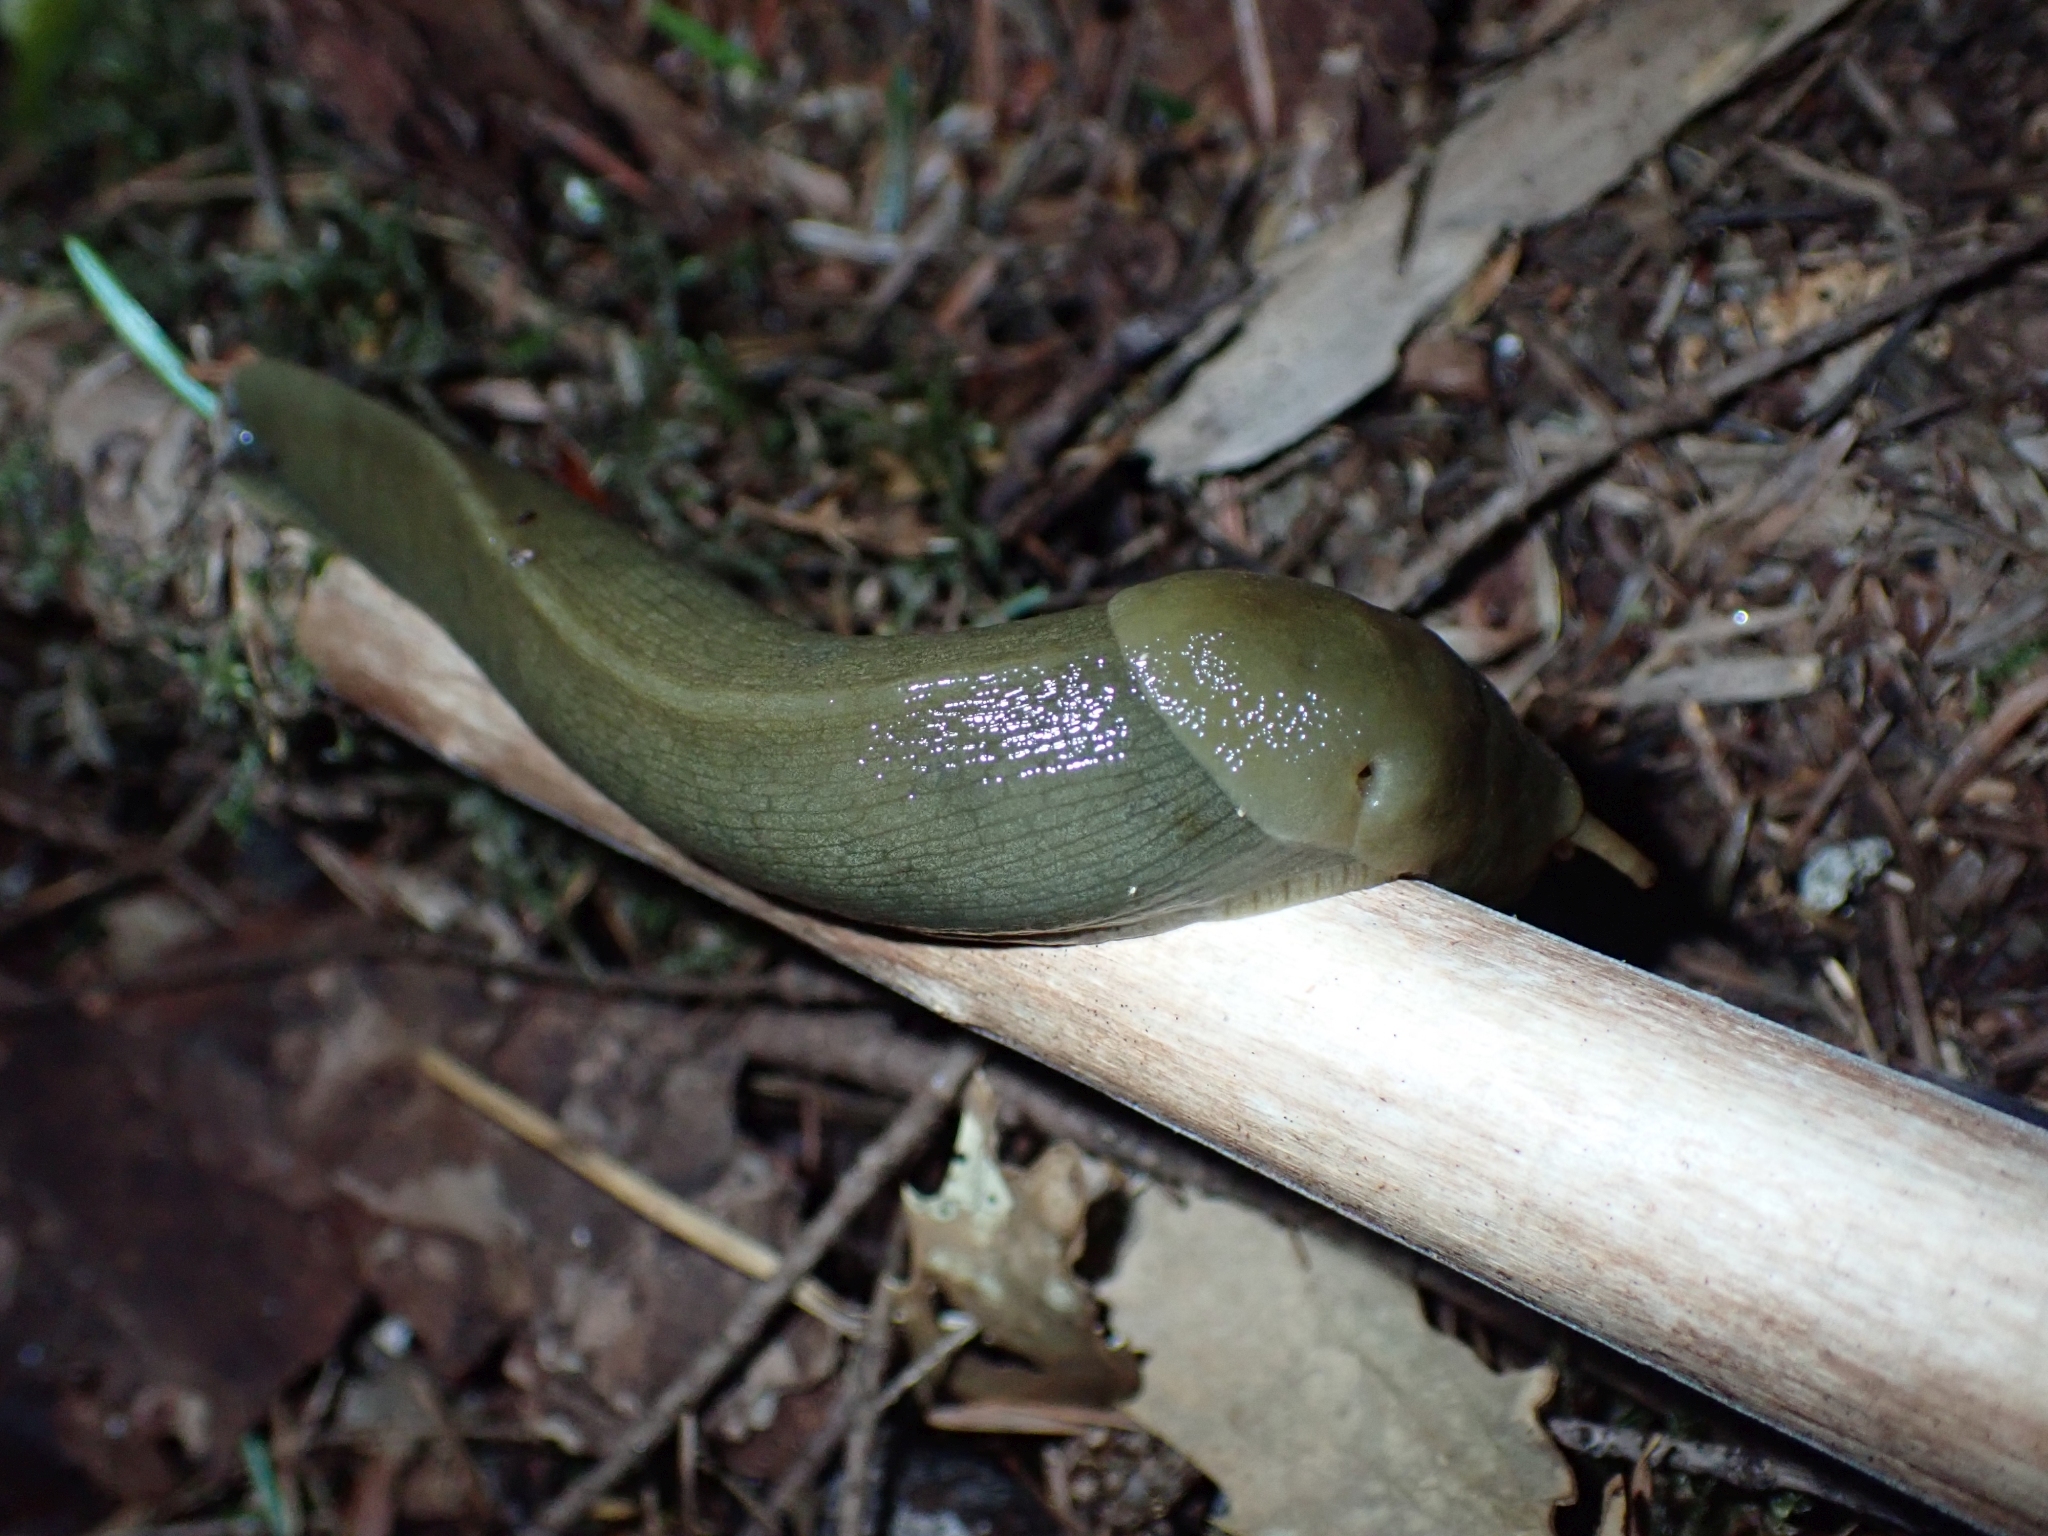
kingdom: Animalia
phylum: Mollusca
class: Gastropoda
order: Stylommatophora
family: Ariolimacidae
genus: Ariolimax
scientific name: Ariolimax columbianus
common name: Pacific banana slug
